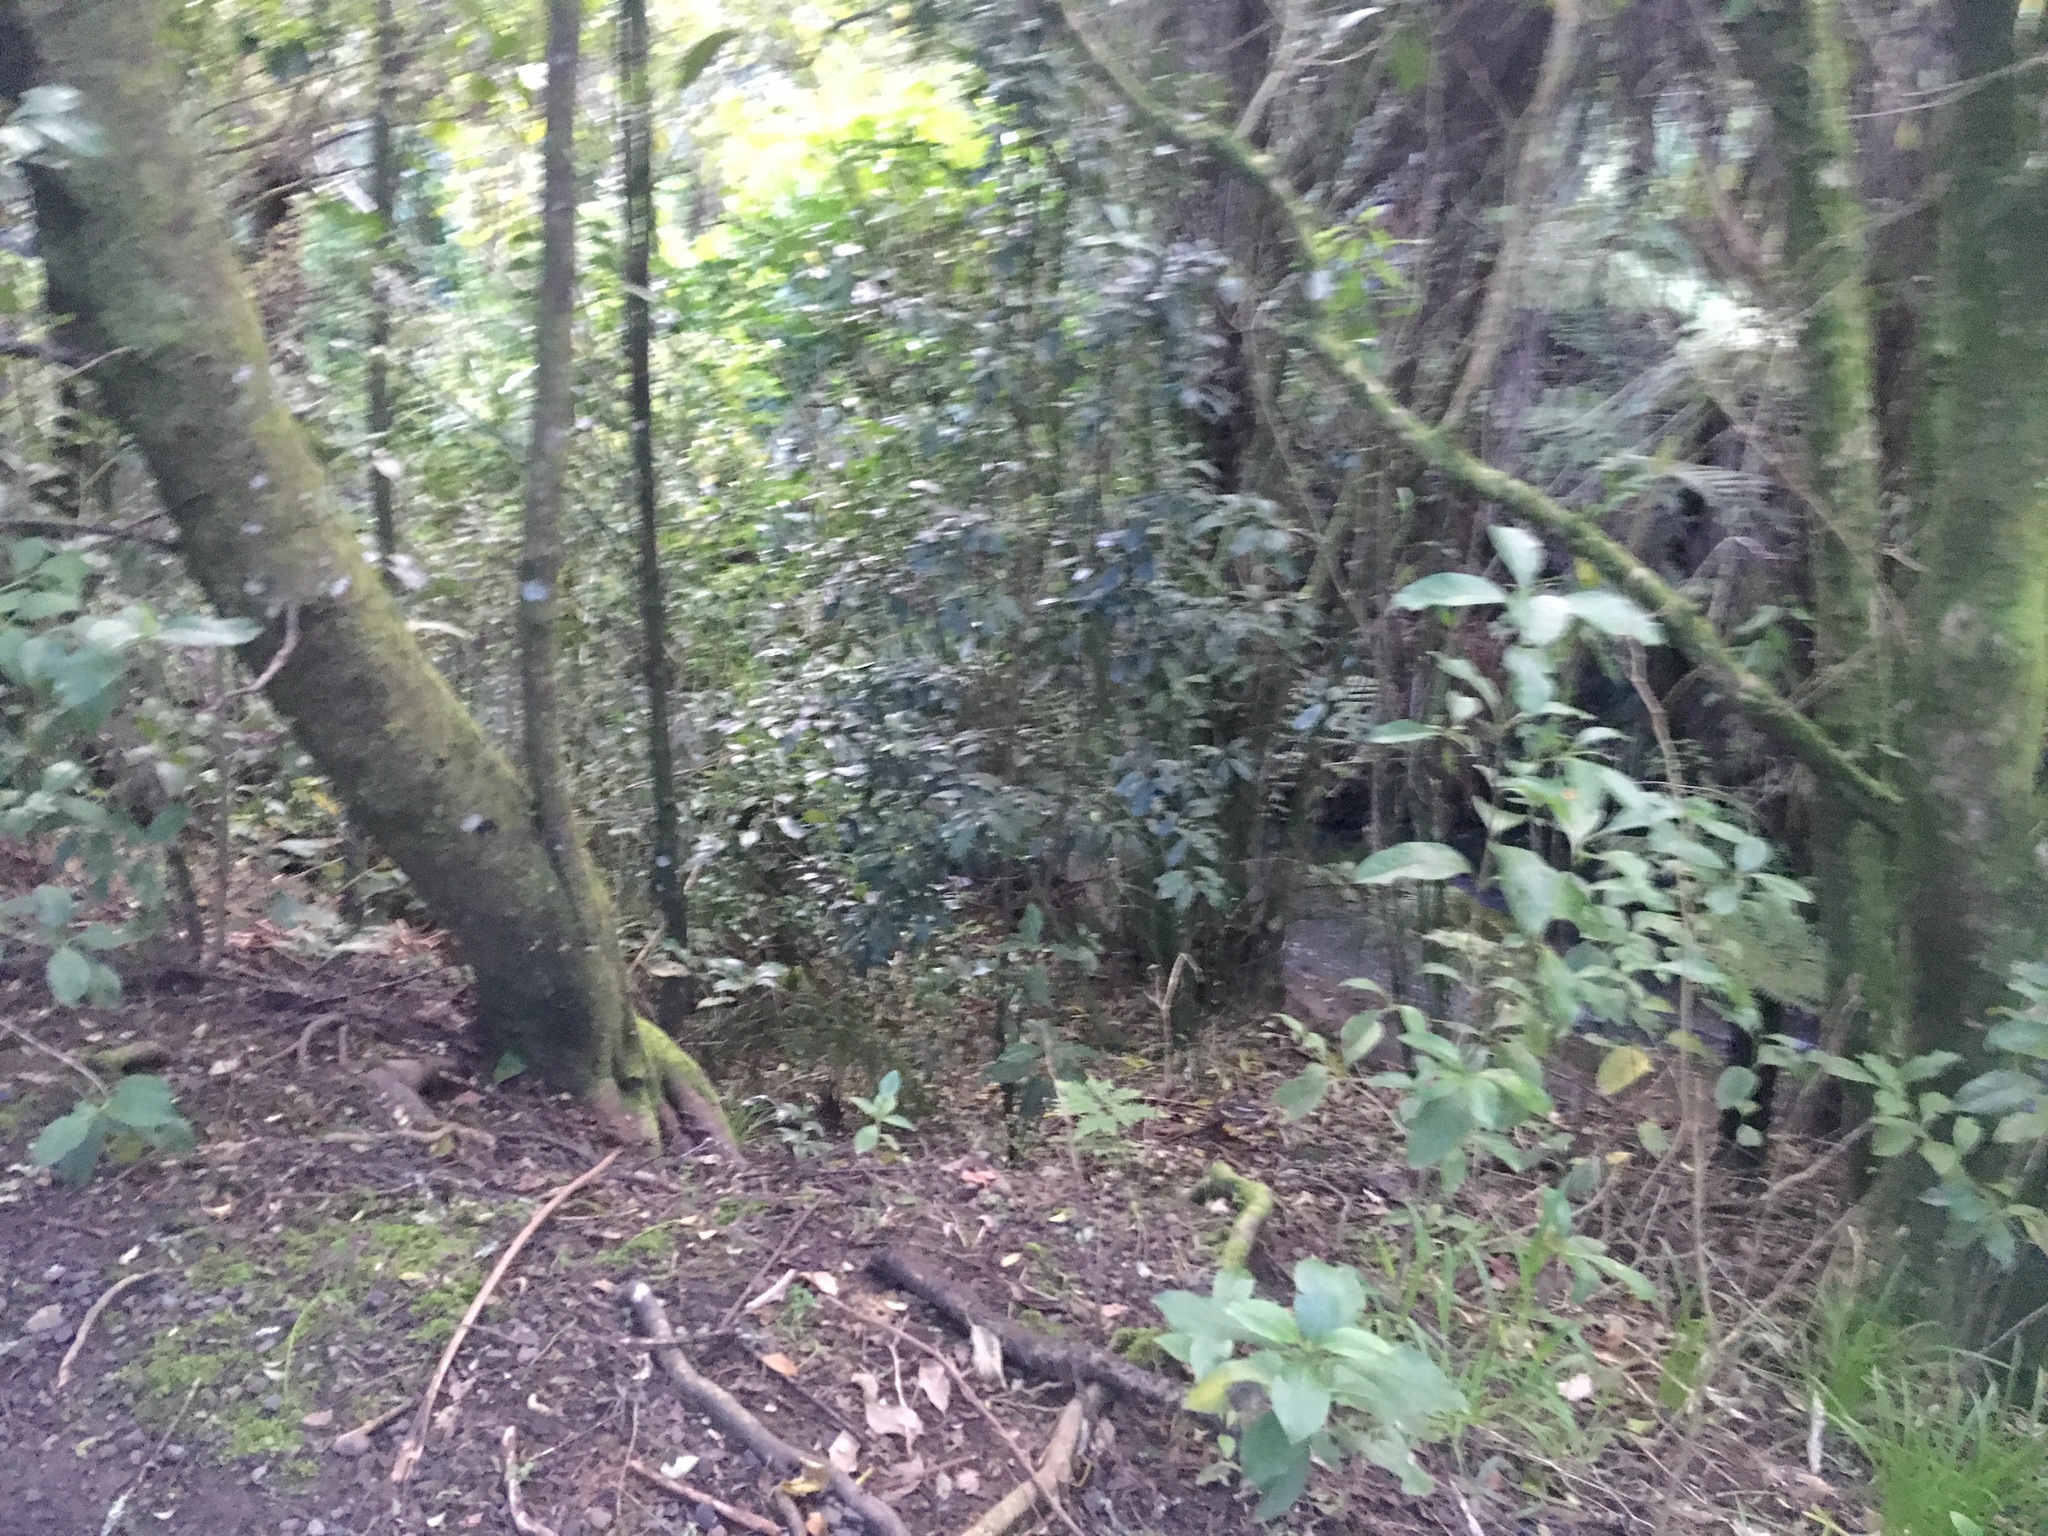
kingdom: Plantae
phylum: Tracheophyta
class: Magnoliopsida
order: Malpighiales
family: Violaceae
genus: Melicytus
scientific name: Melicytus ramiflorus
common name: Mahoe
